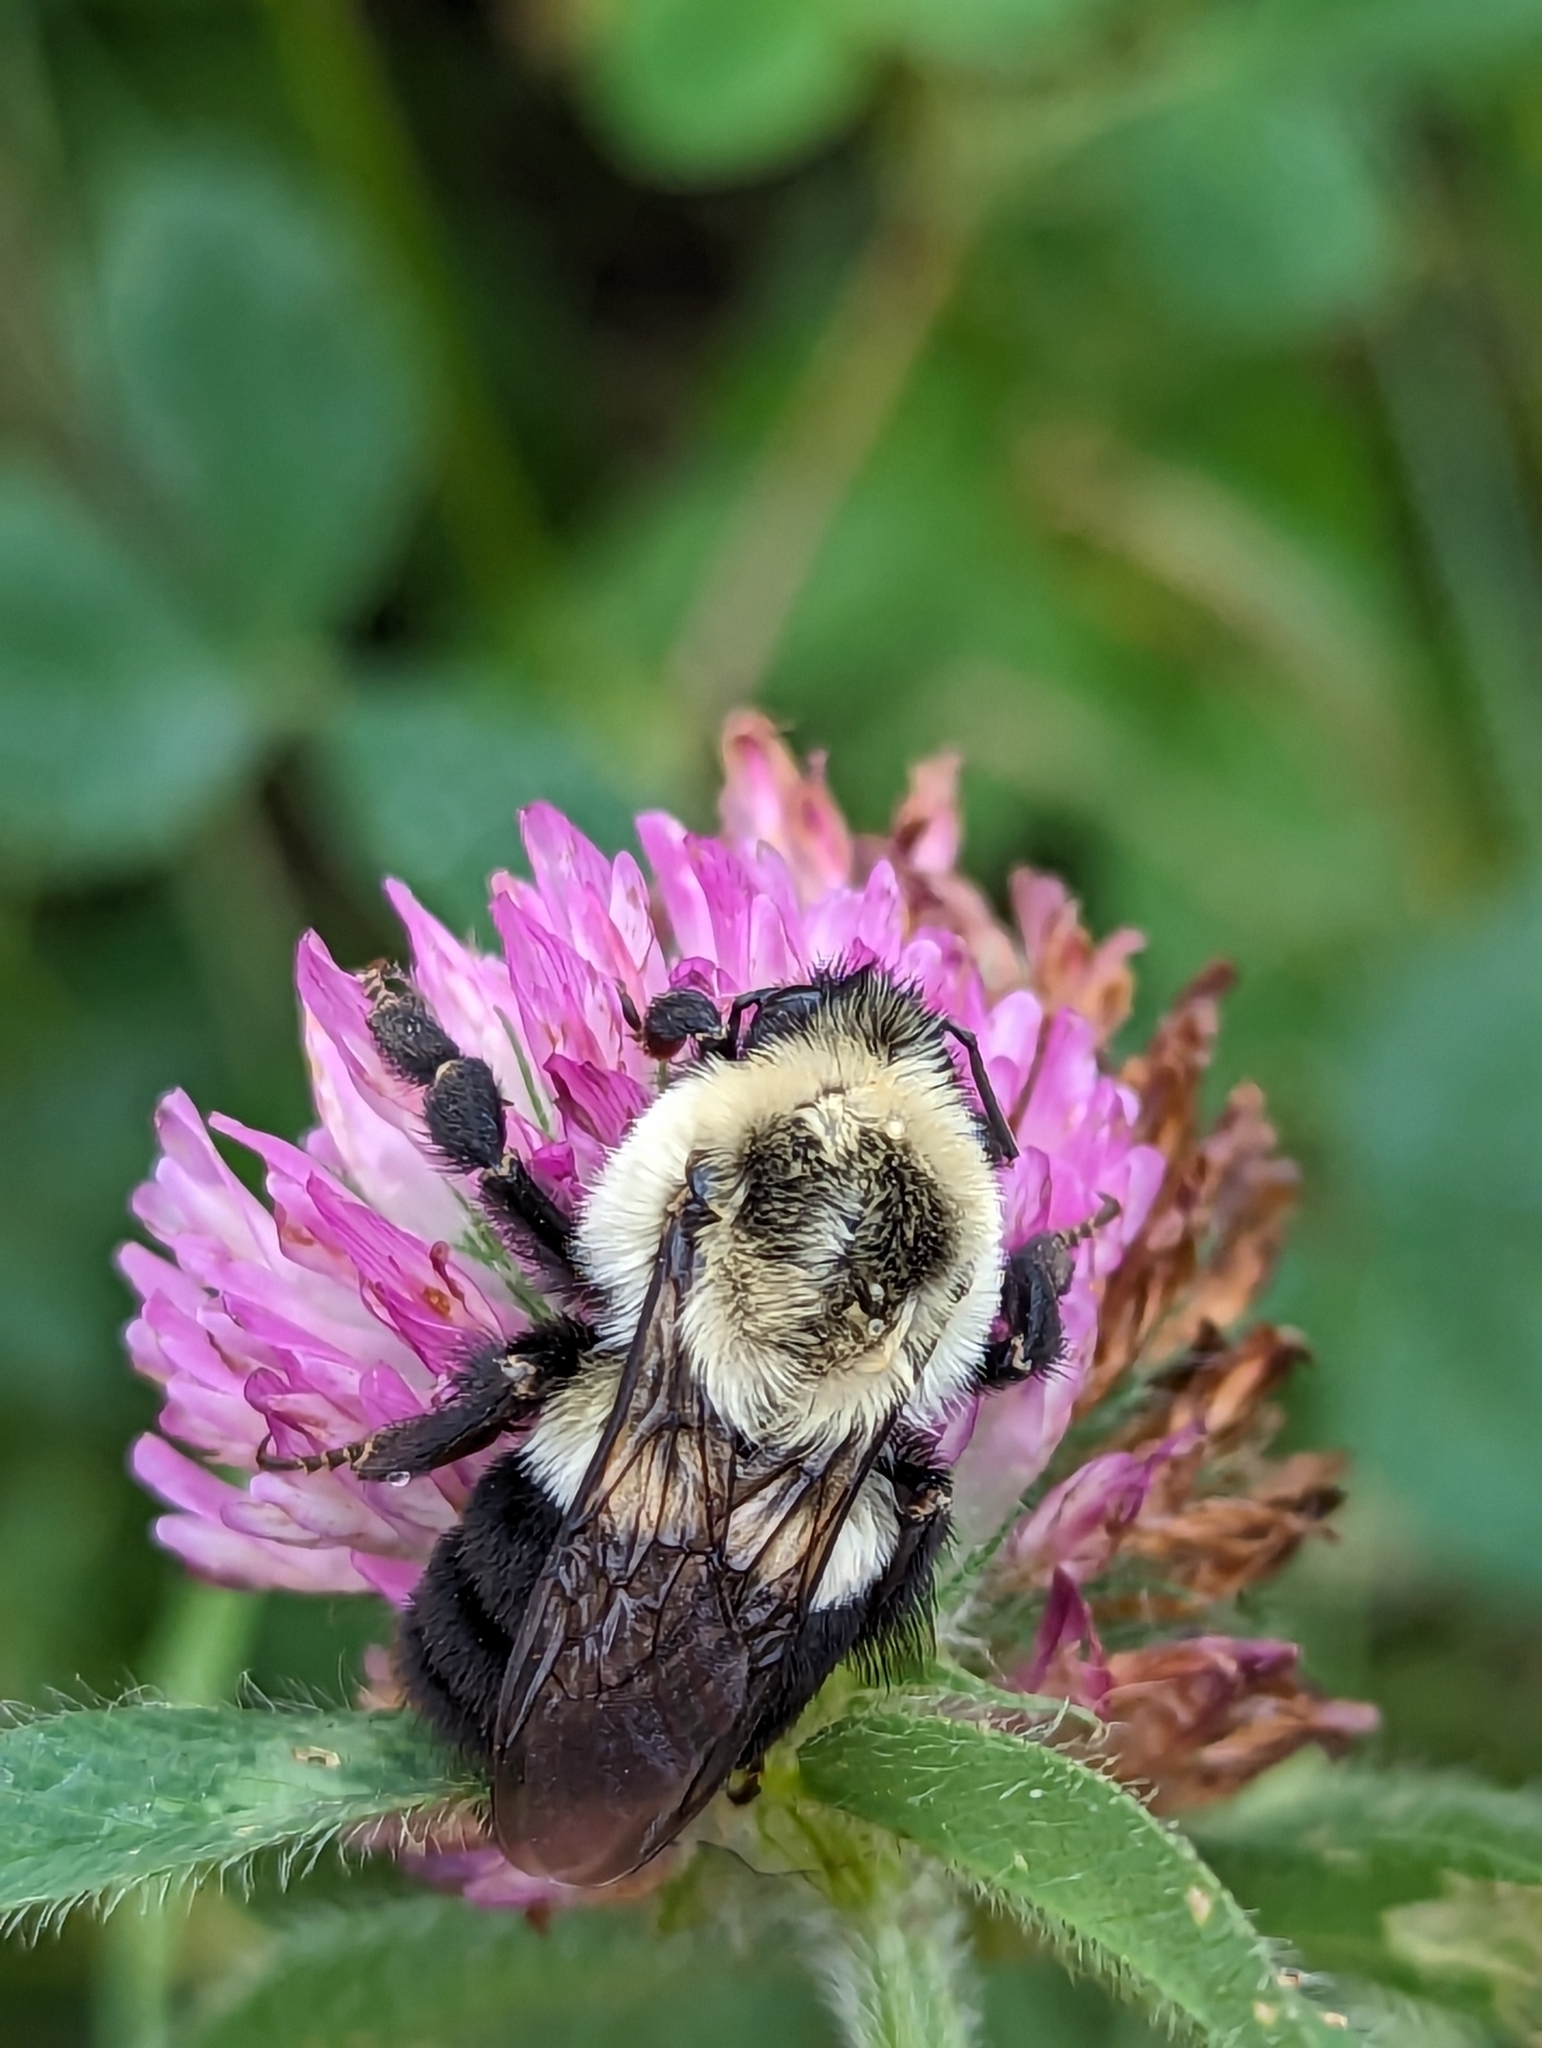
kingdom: Animalia
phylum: Arthropoda
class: Insecta
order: Hymenoptera
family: Apidae
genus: Bombus
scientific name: Bombus impatiens
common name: Common eastern bumble bee
